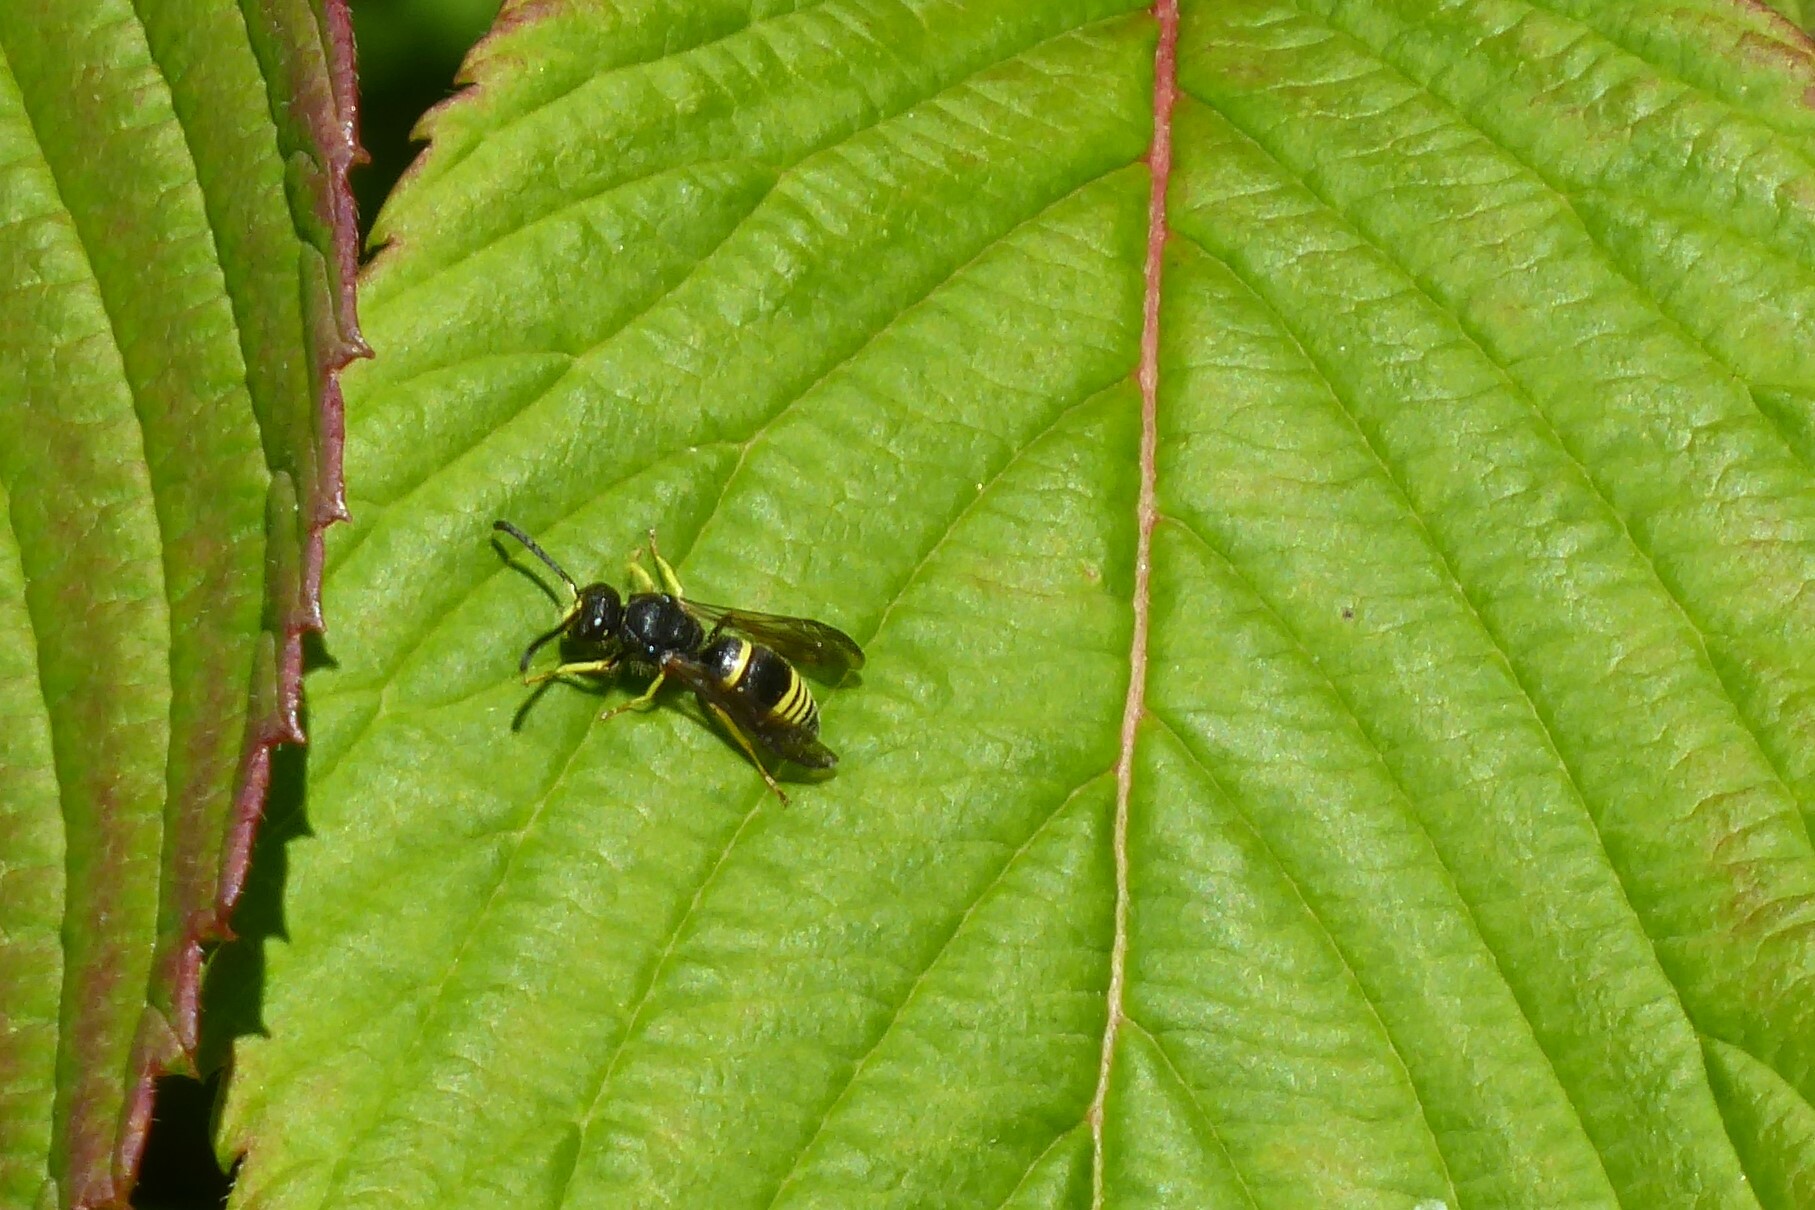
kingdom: Animalia
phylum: Arthropoda
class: Insecta
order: Hymenoptera
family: Vespidae
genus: Ancistrocerus
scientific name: Ancistrocerus gazella
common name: European tube wasp
